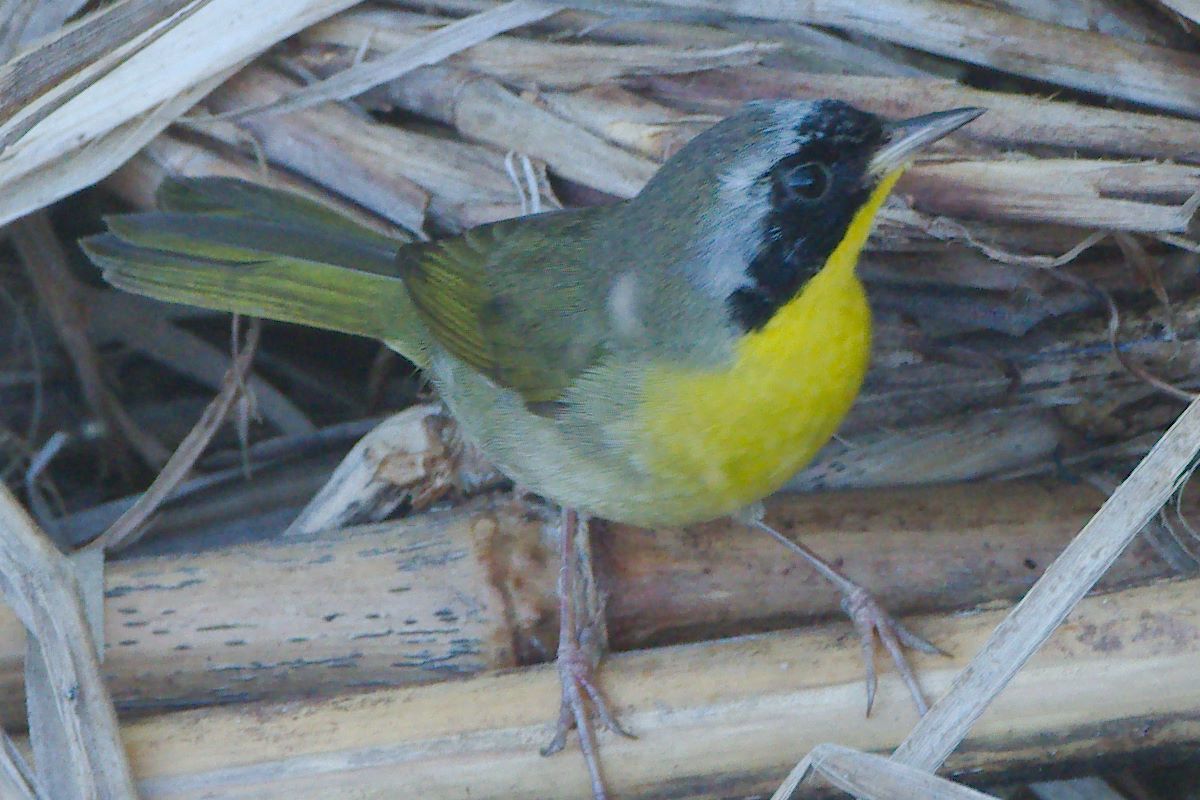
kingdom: Animalia
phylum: Chordata
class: Aves
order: Passeriformes
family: Parulidae
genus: Geothlypis
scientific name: Geothlypis trichas
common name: Common yellowthroat
